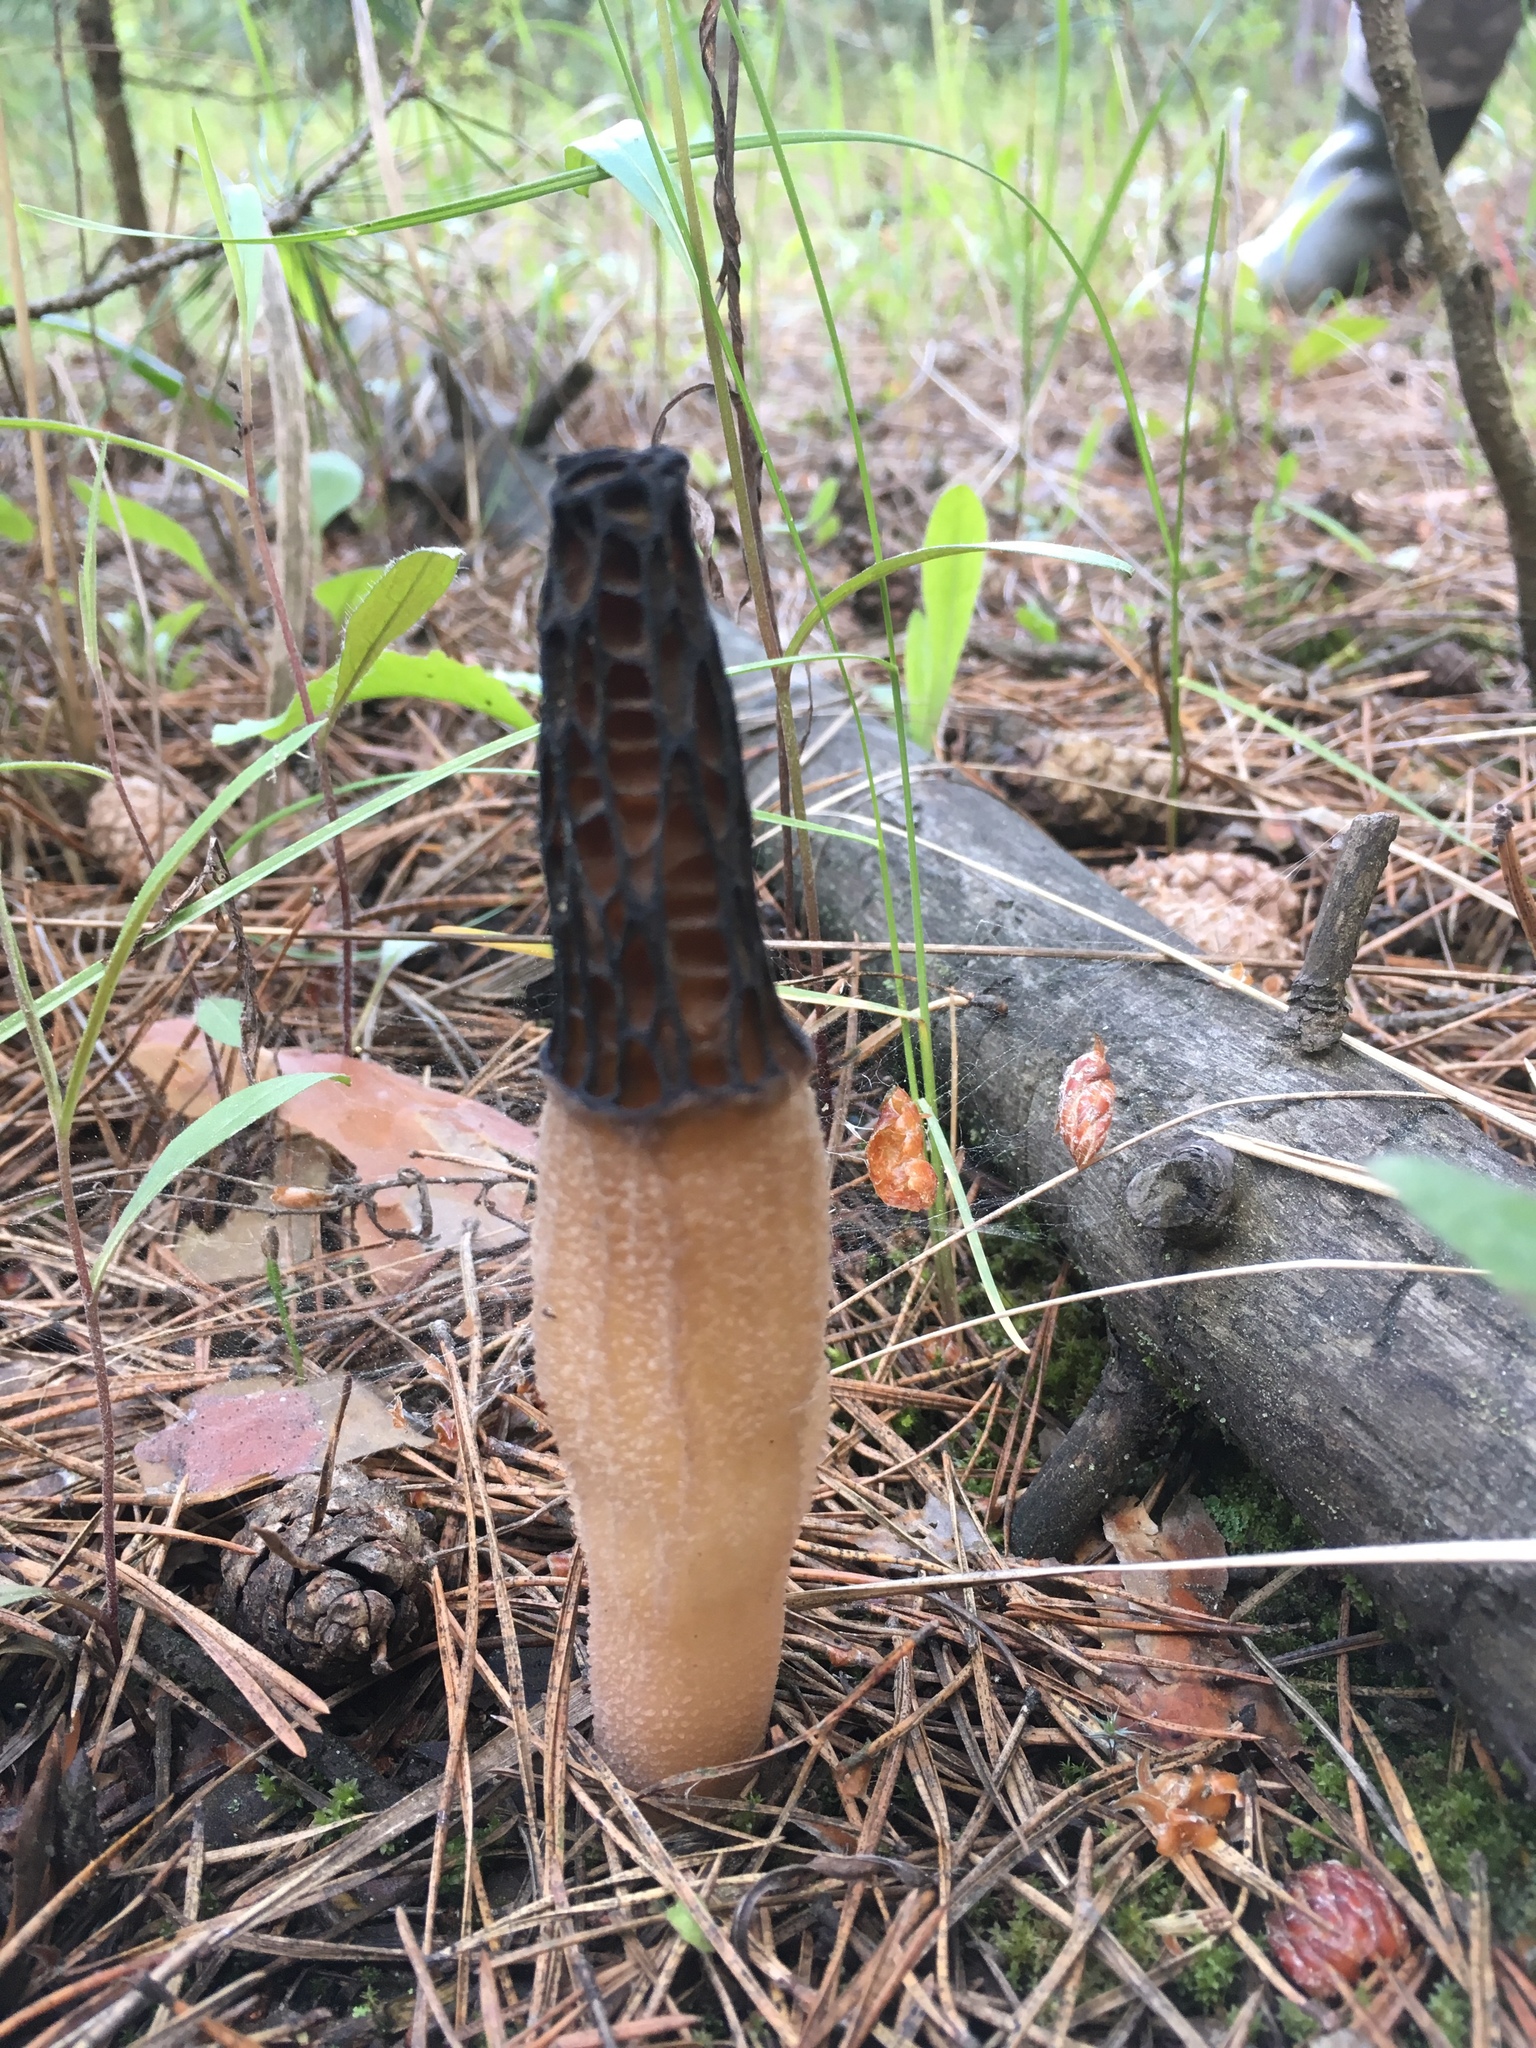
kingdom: Fungi
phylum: Ascomycota
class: Pezizomycetes
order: Pezizales
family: Morchellaceae
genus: Morchella
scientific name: Morchella
